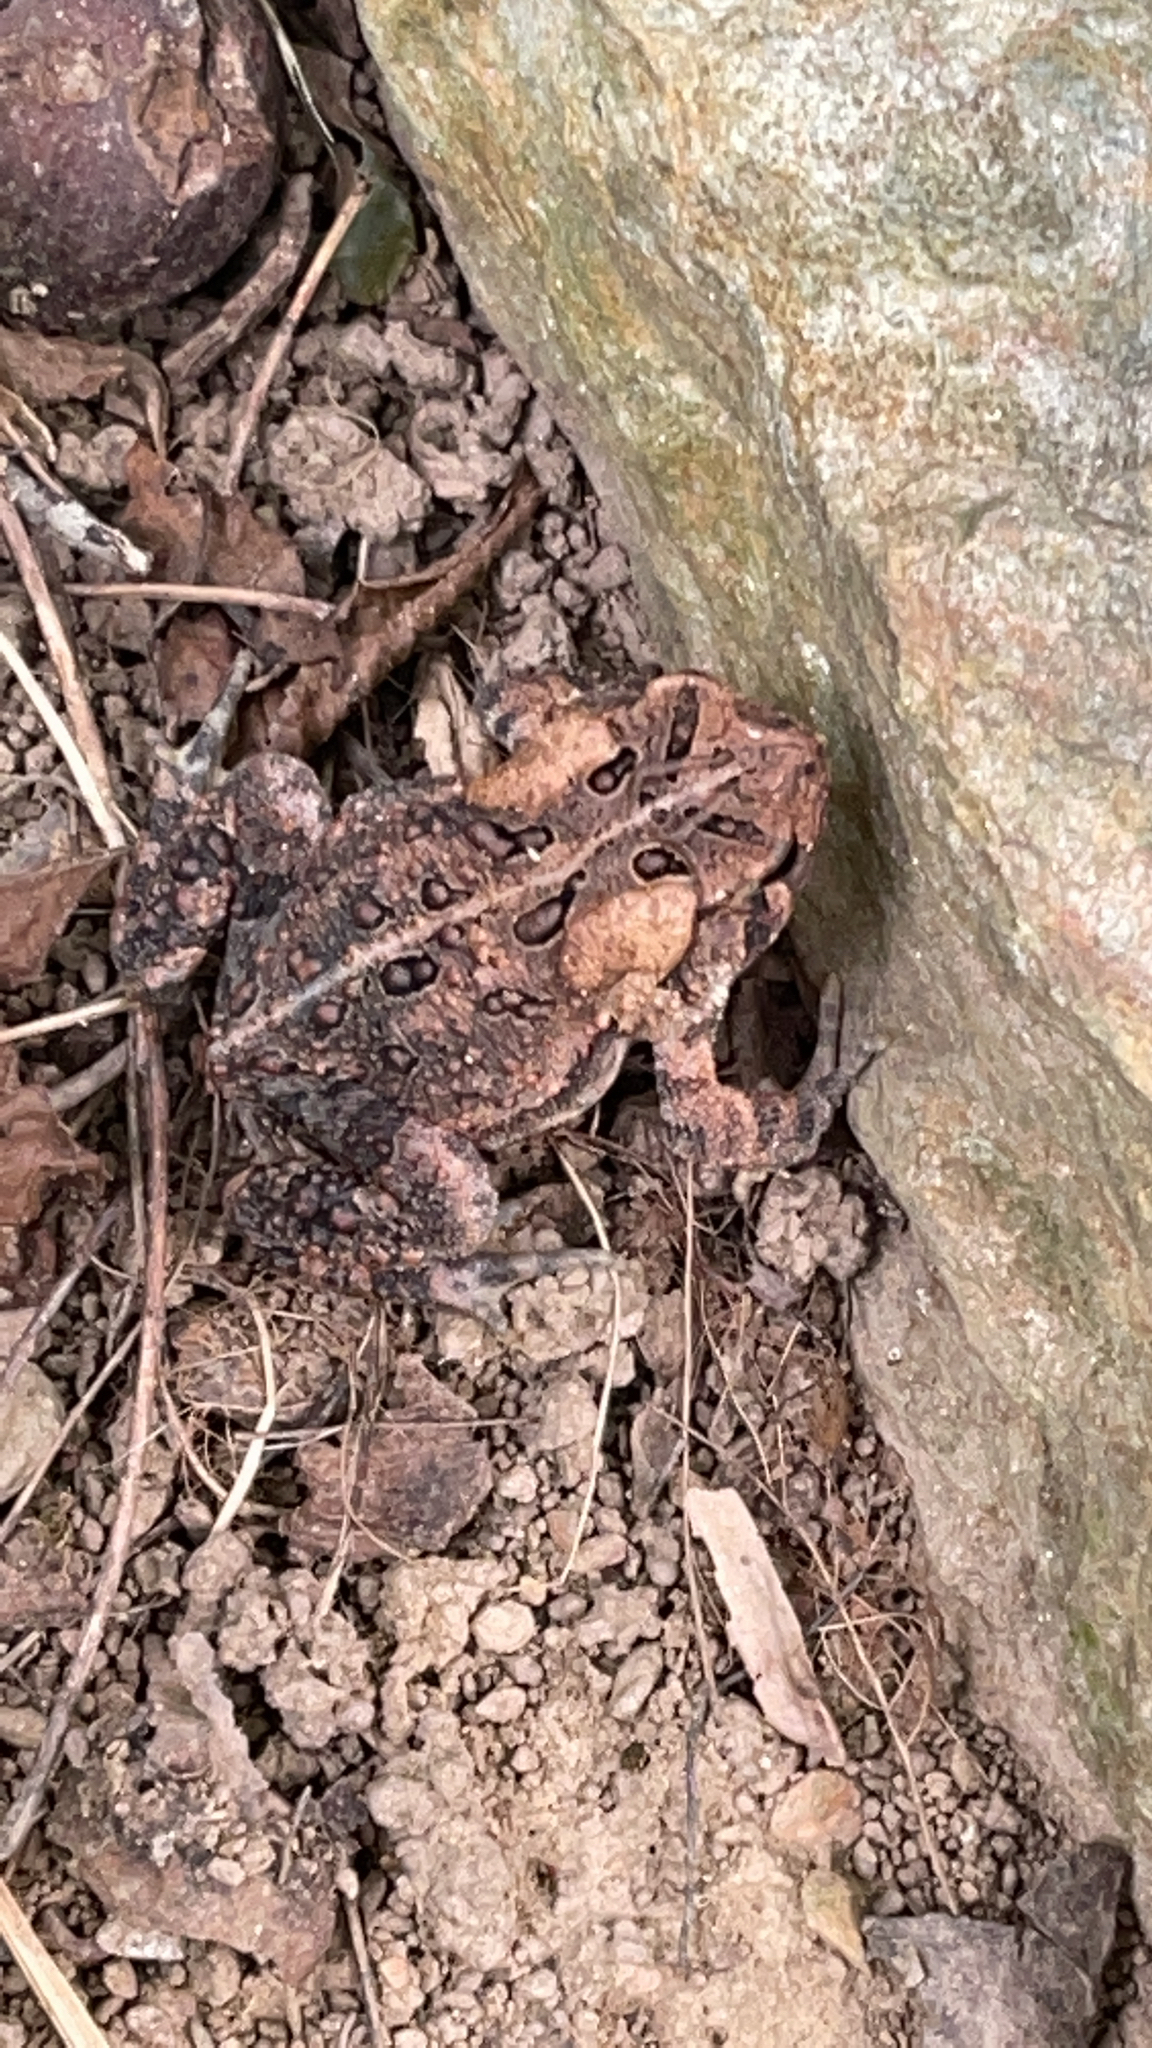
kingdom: Animalia
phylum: Chordata
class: Amphibia
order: Anura
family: Bufonidae
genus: Anaxyrus
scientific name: Anaxyrus americanus
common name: American toad
